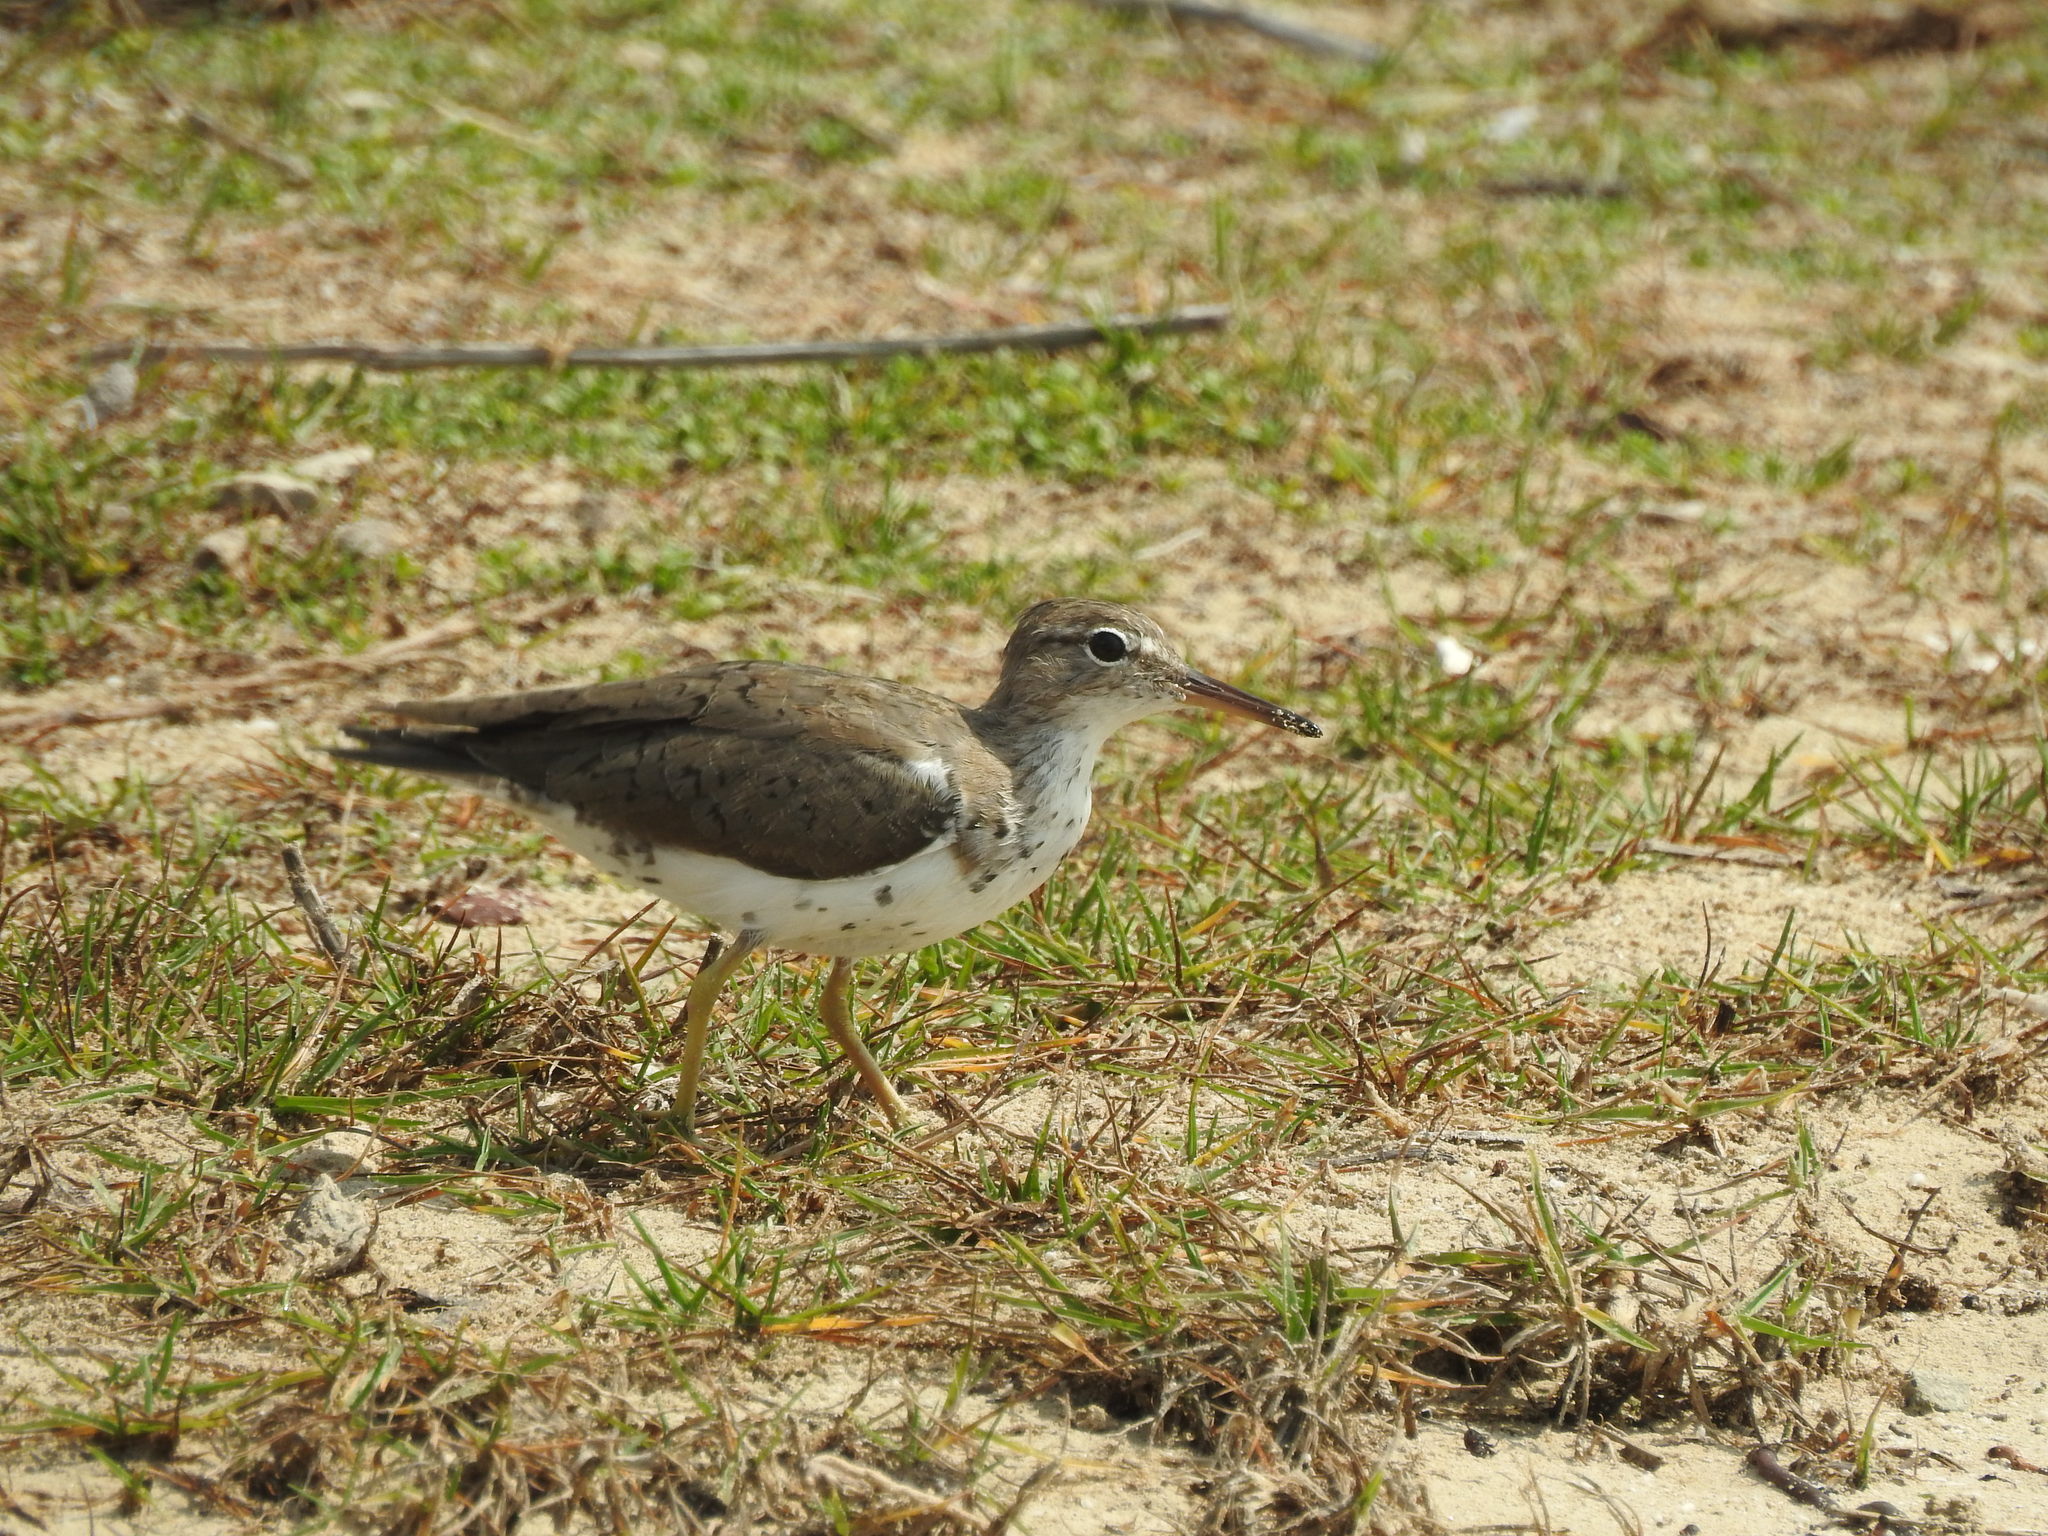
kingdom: Animalia
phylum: Chordata
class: Aves
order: Charadriiformes
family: Scolopacidae
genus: Actitis
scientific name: Actitis macularius
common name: Spotted sandpiper
